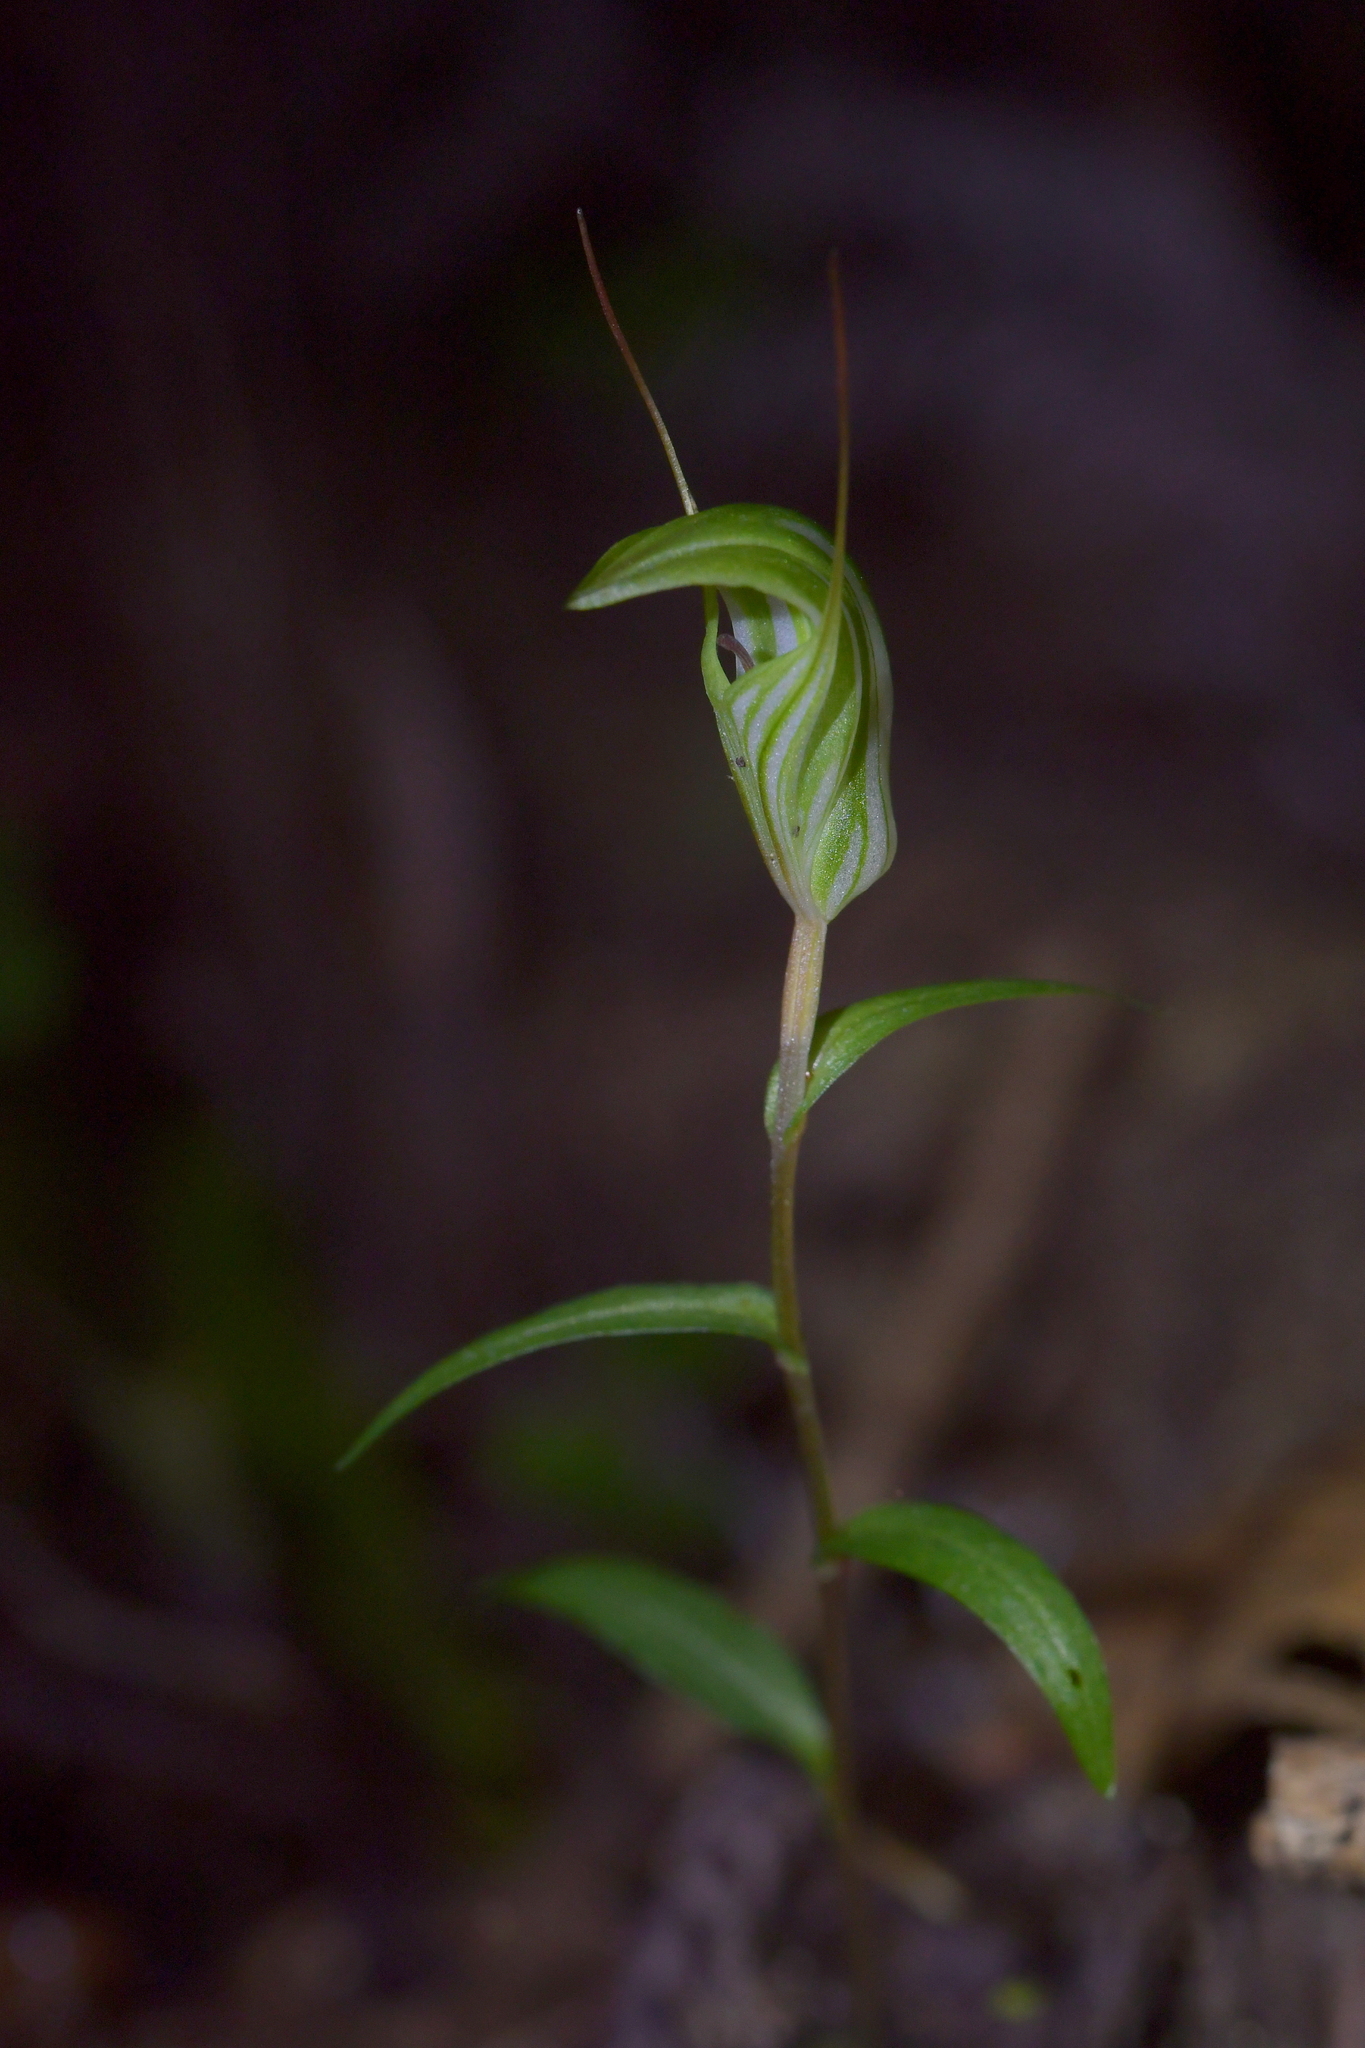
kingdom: Plantae
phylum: Tracheophyta
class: Liliopsida
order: Asparagales
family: Orchidaceae
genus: Pterostylis
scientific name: Pterostylis alobula
